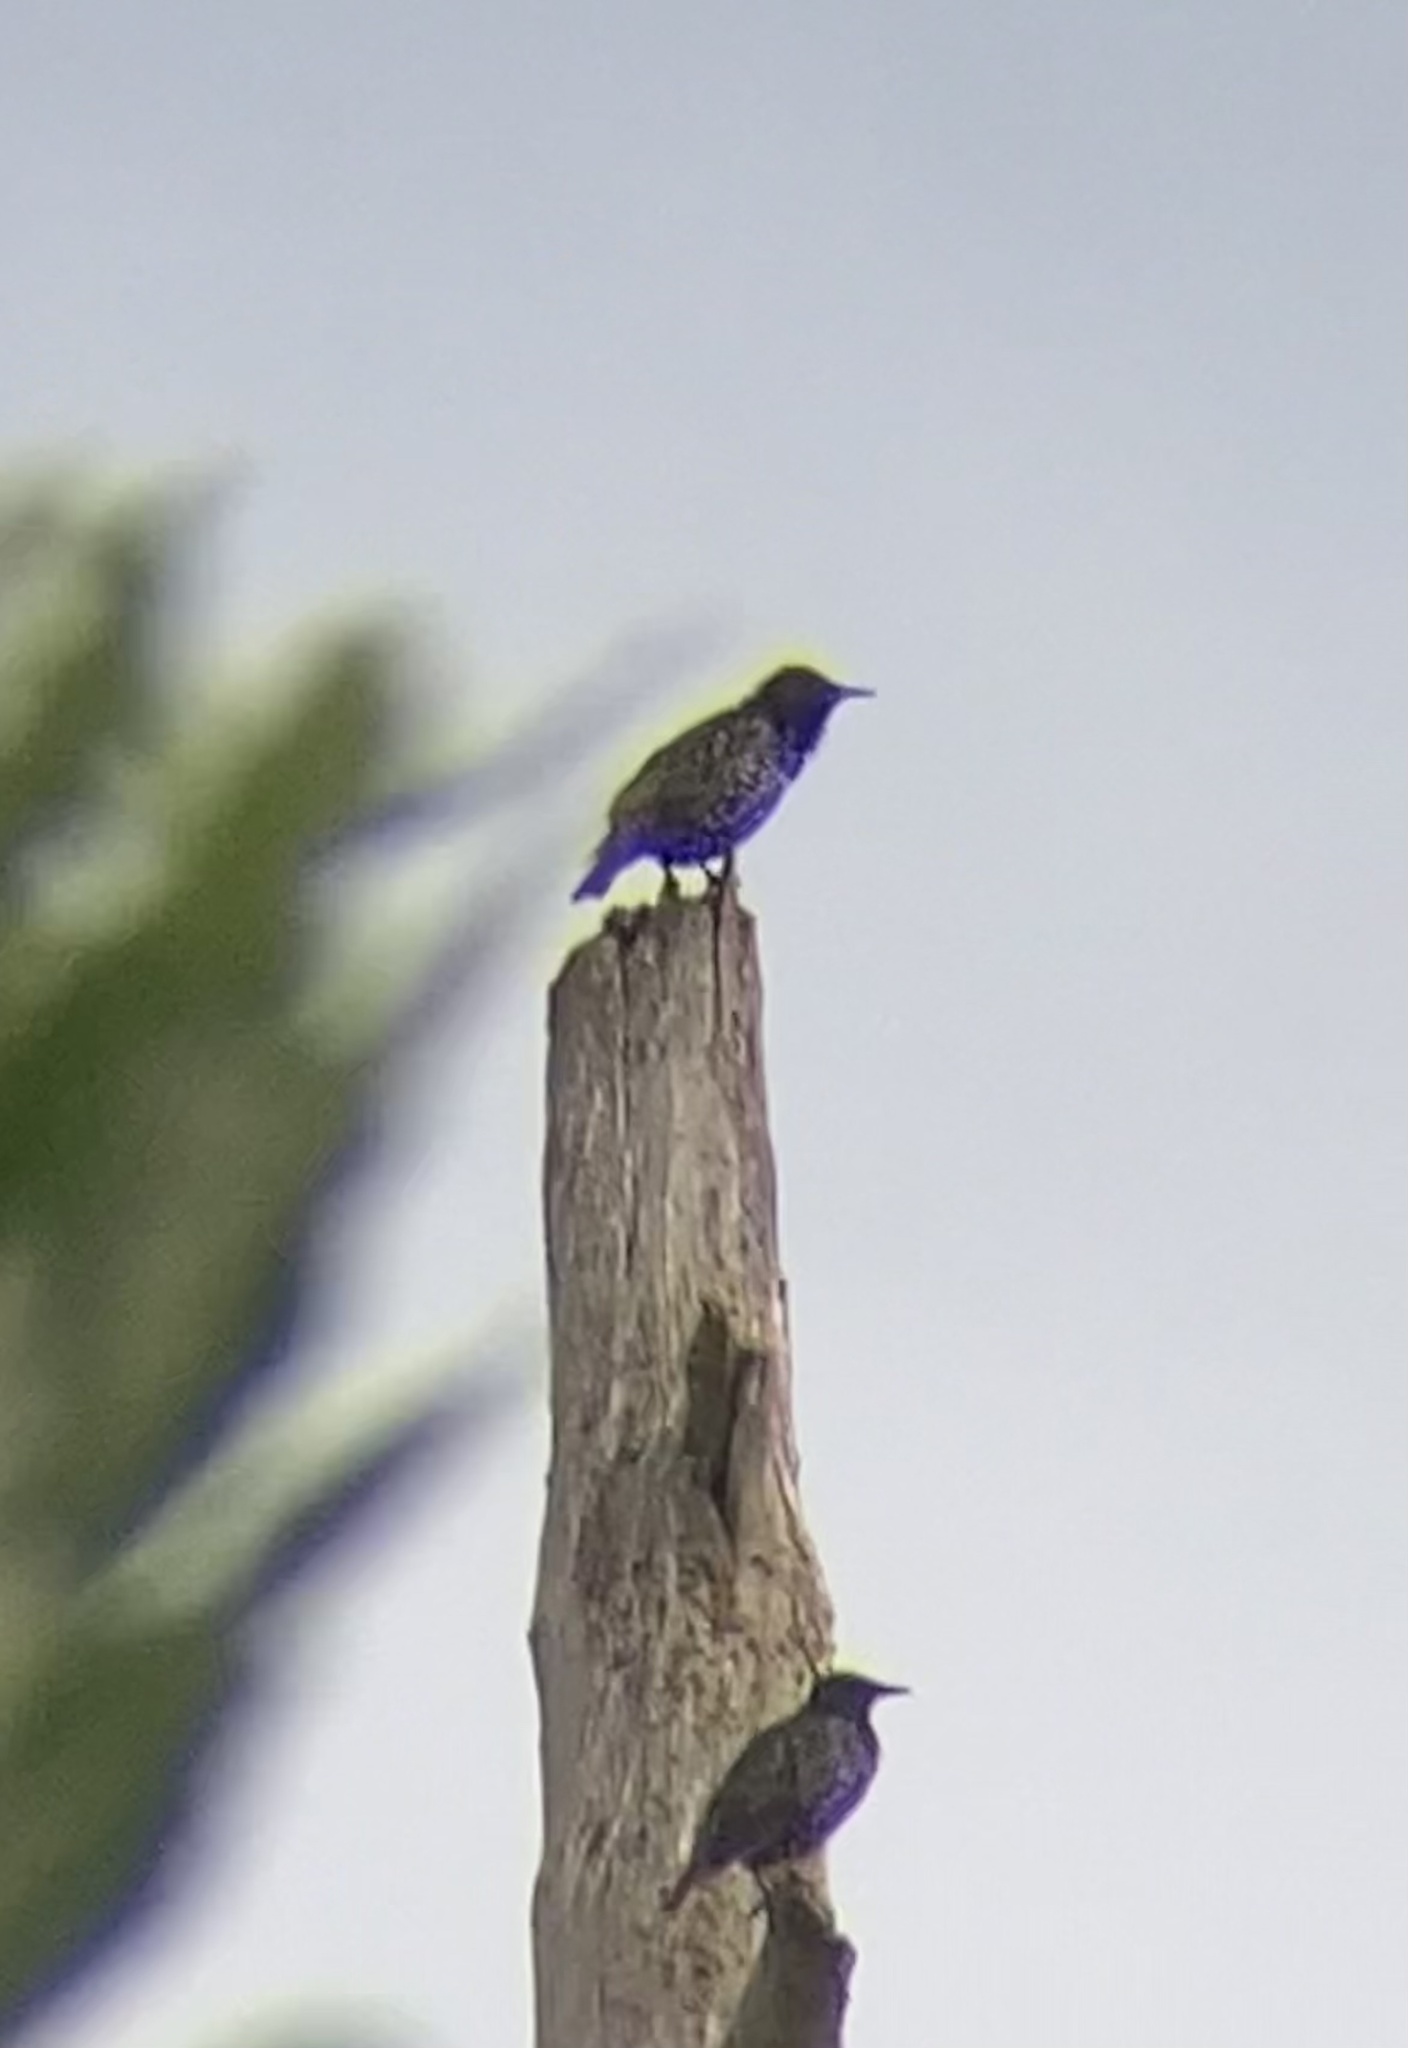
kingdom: Animalia
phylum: Chordata
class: Aves
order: Passeriformes
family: Sturnidae
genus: Sturnus
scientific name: Sturnus vulgaris
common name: Common starling
